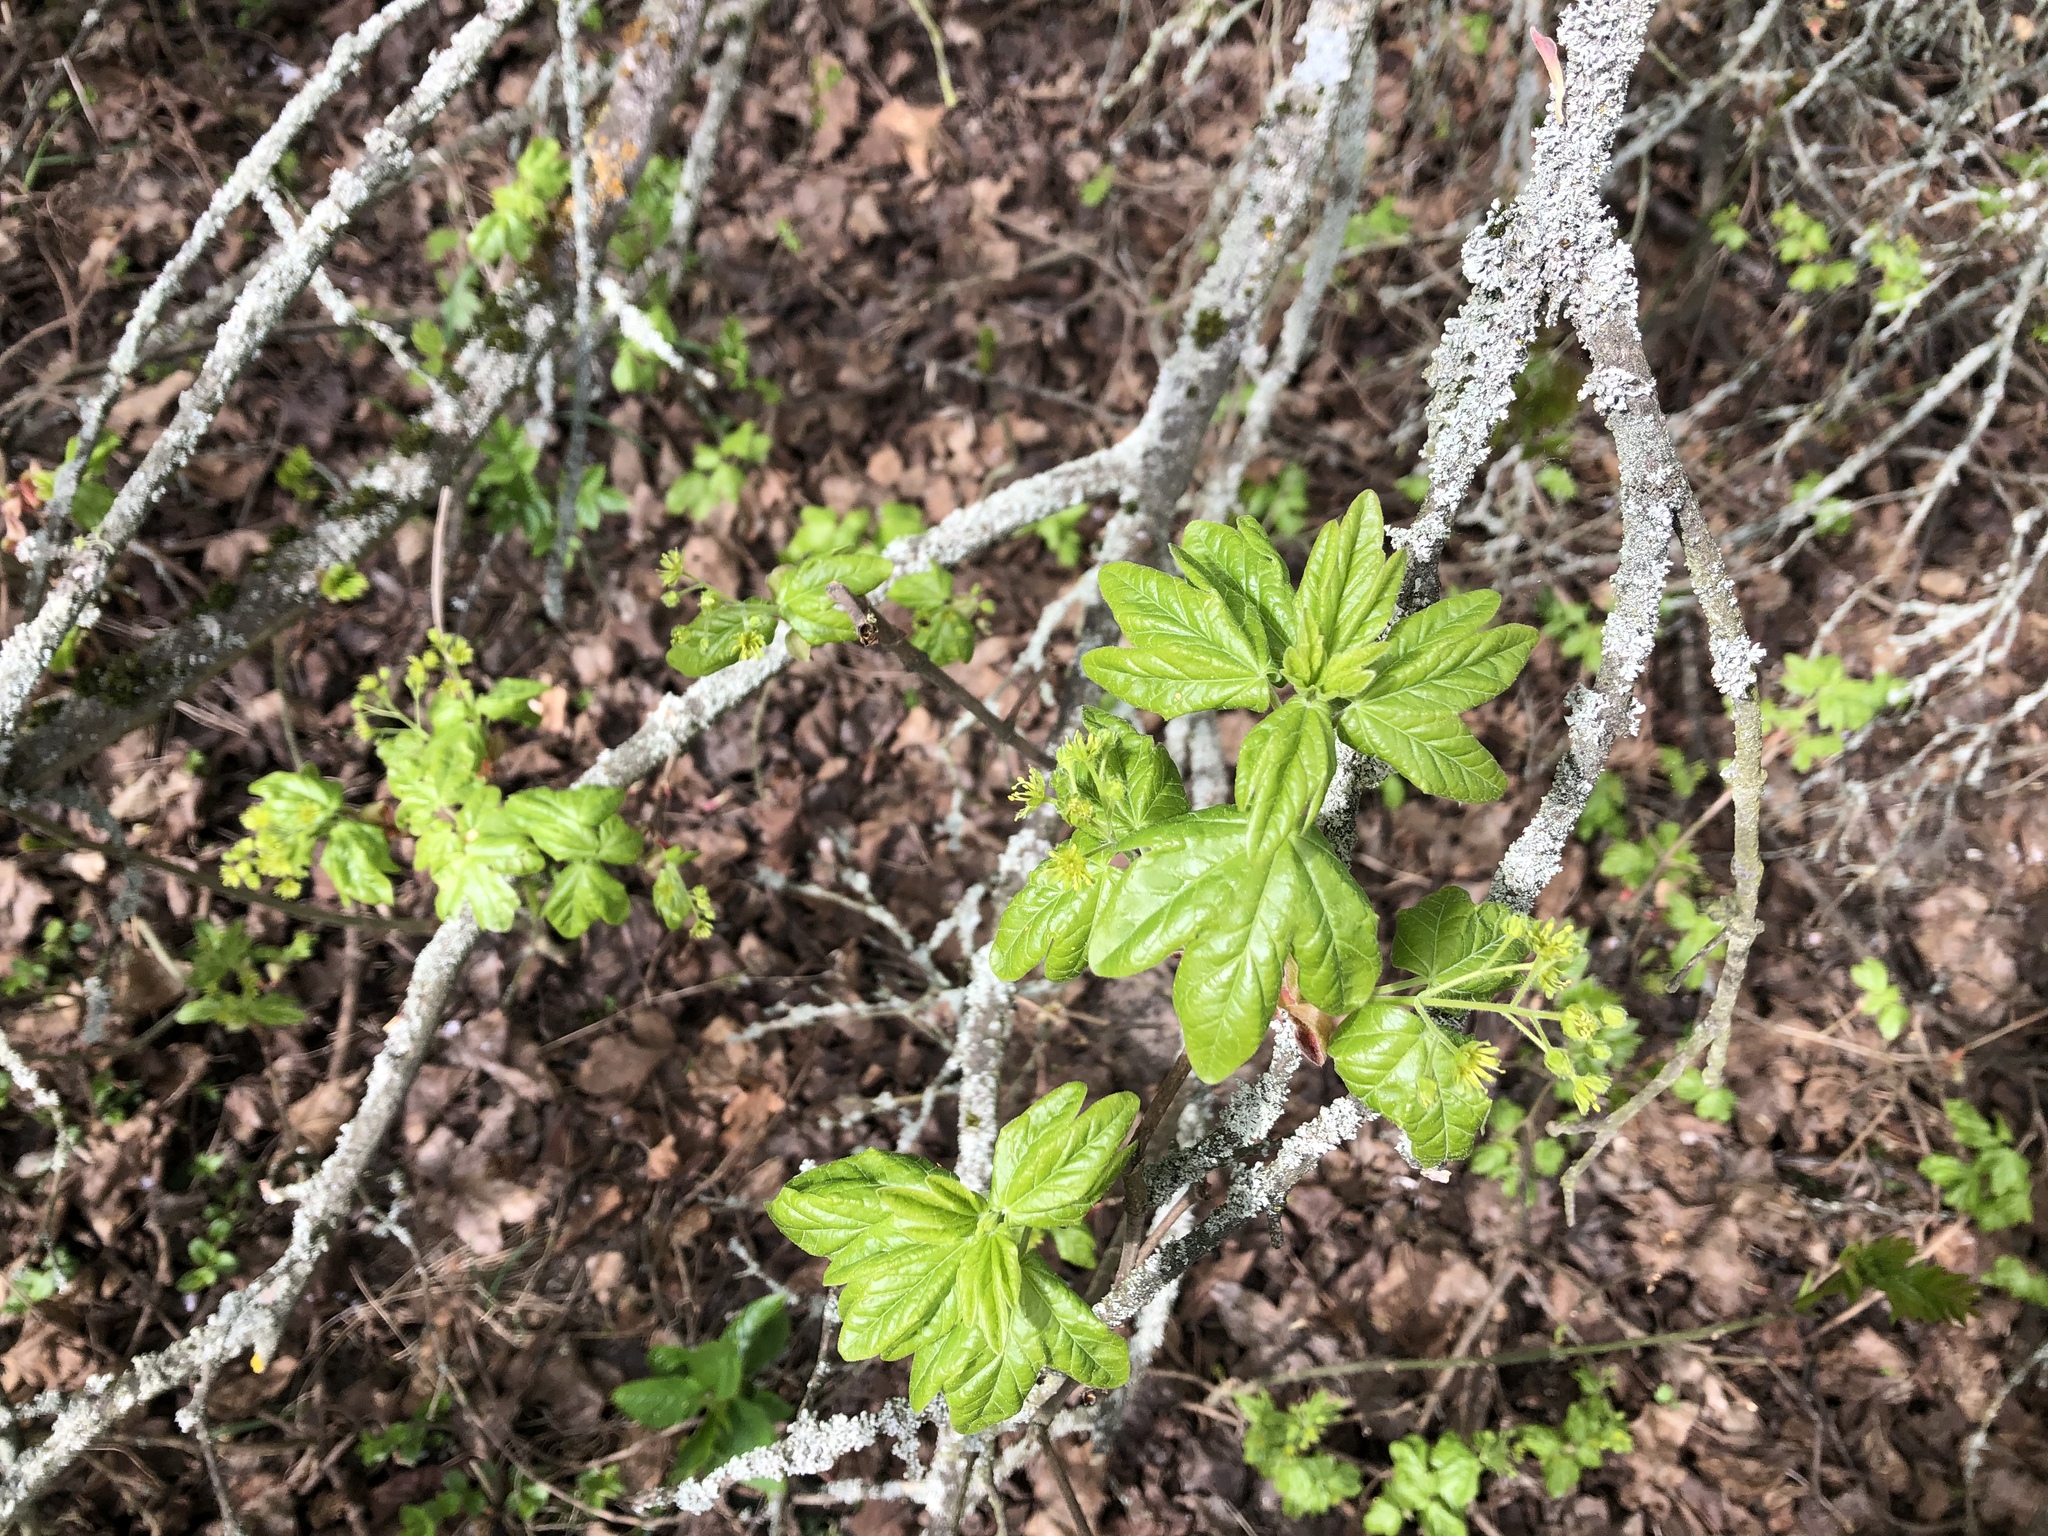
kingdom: Plantae
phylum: Tracheophyta
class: Magnoliopsida
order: Sapindales
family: Sapindaceae
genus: Acer
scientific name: Acer campestre
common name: Field maple
